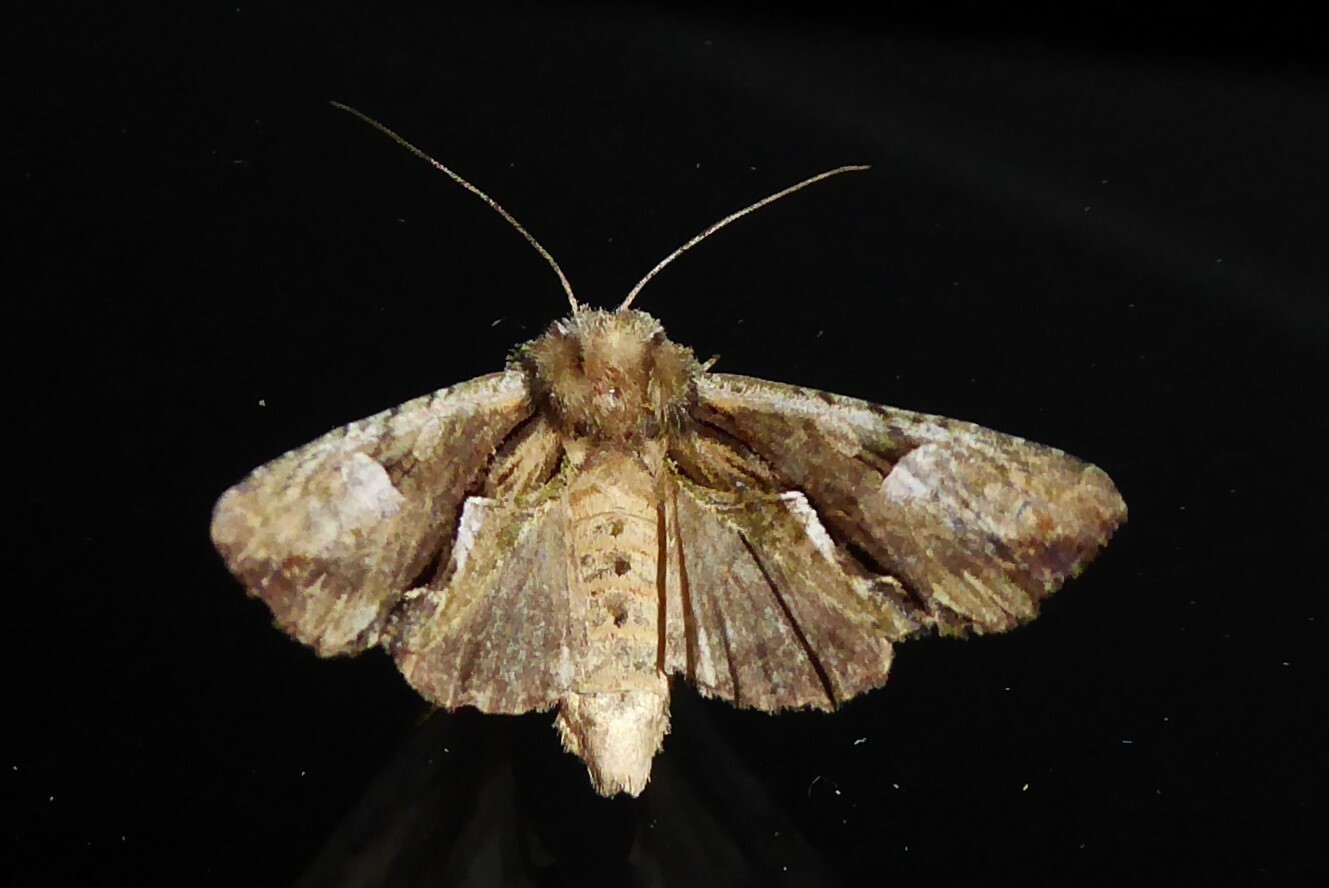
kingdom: Animalia
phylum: Arthropoda
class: Insecta
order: Lepidoptera
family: Noctuidae
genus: Meterana
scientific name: Meterana decorata
